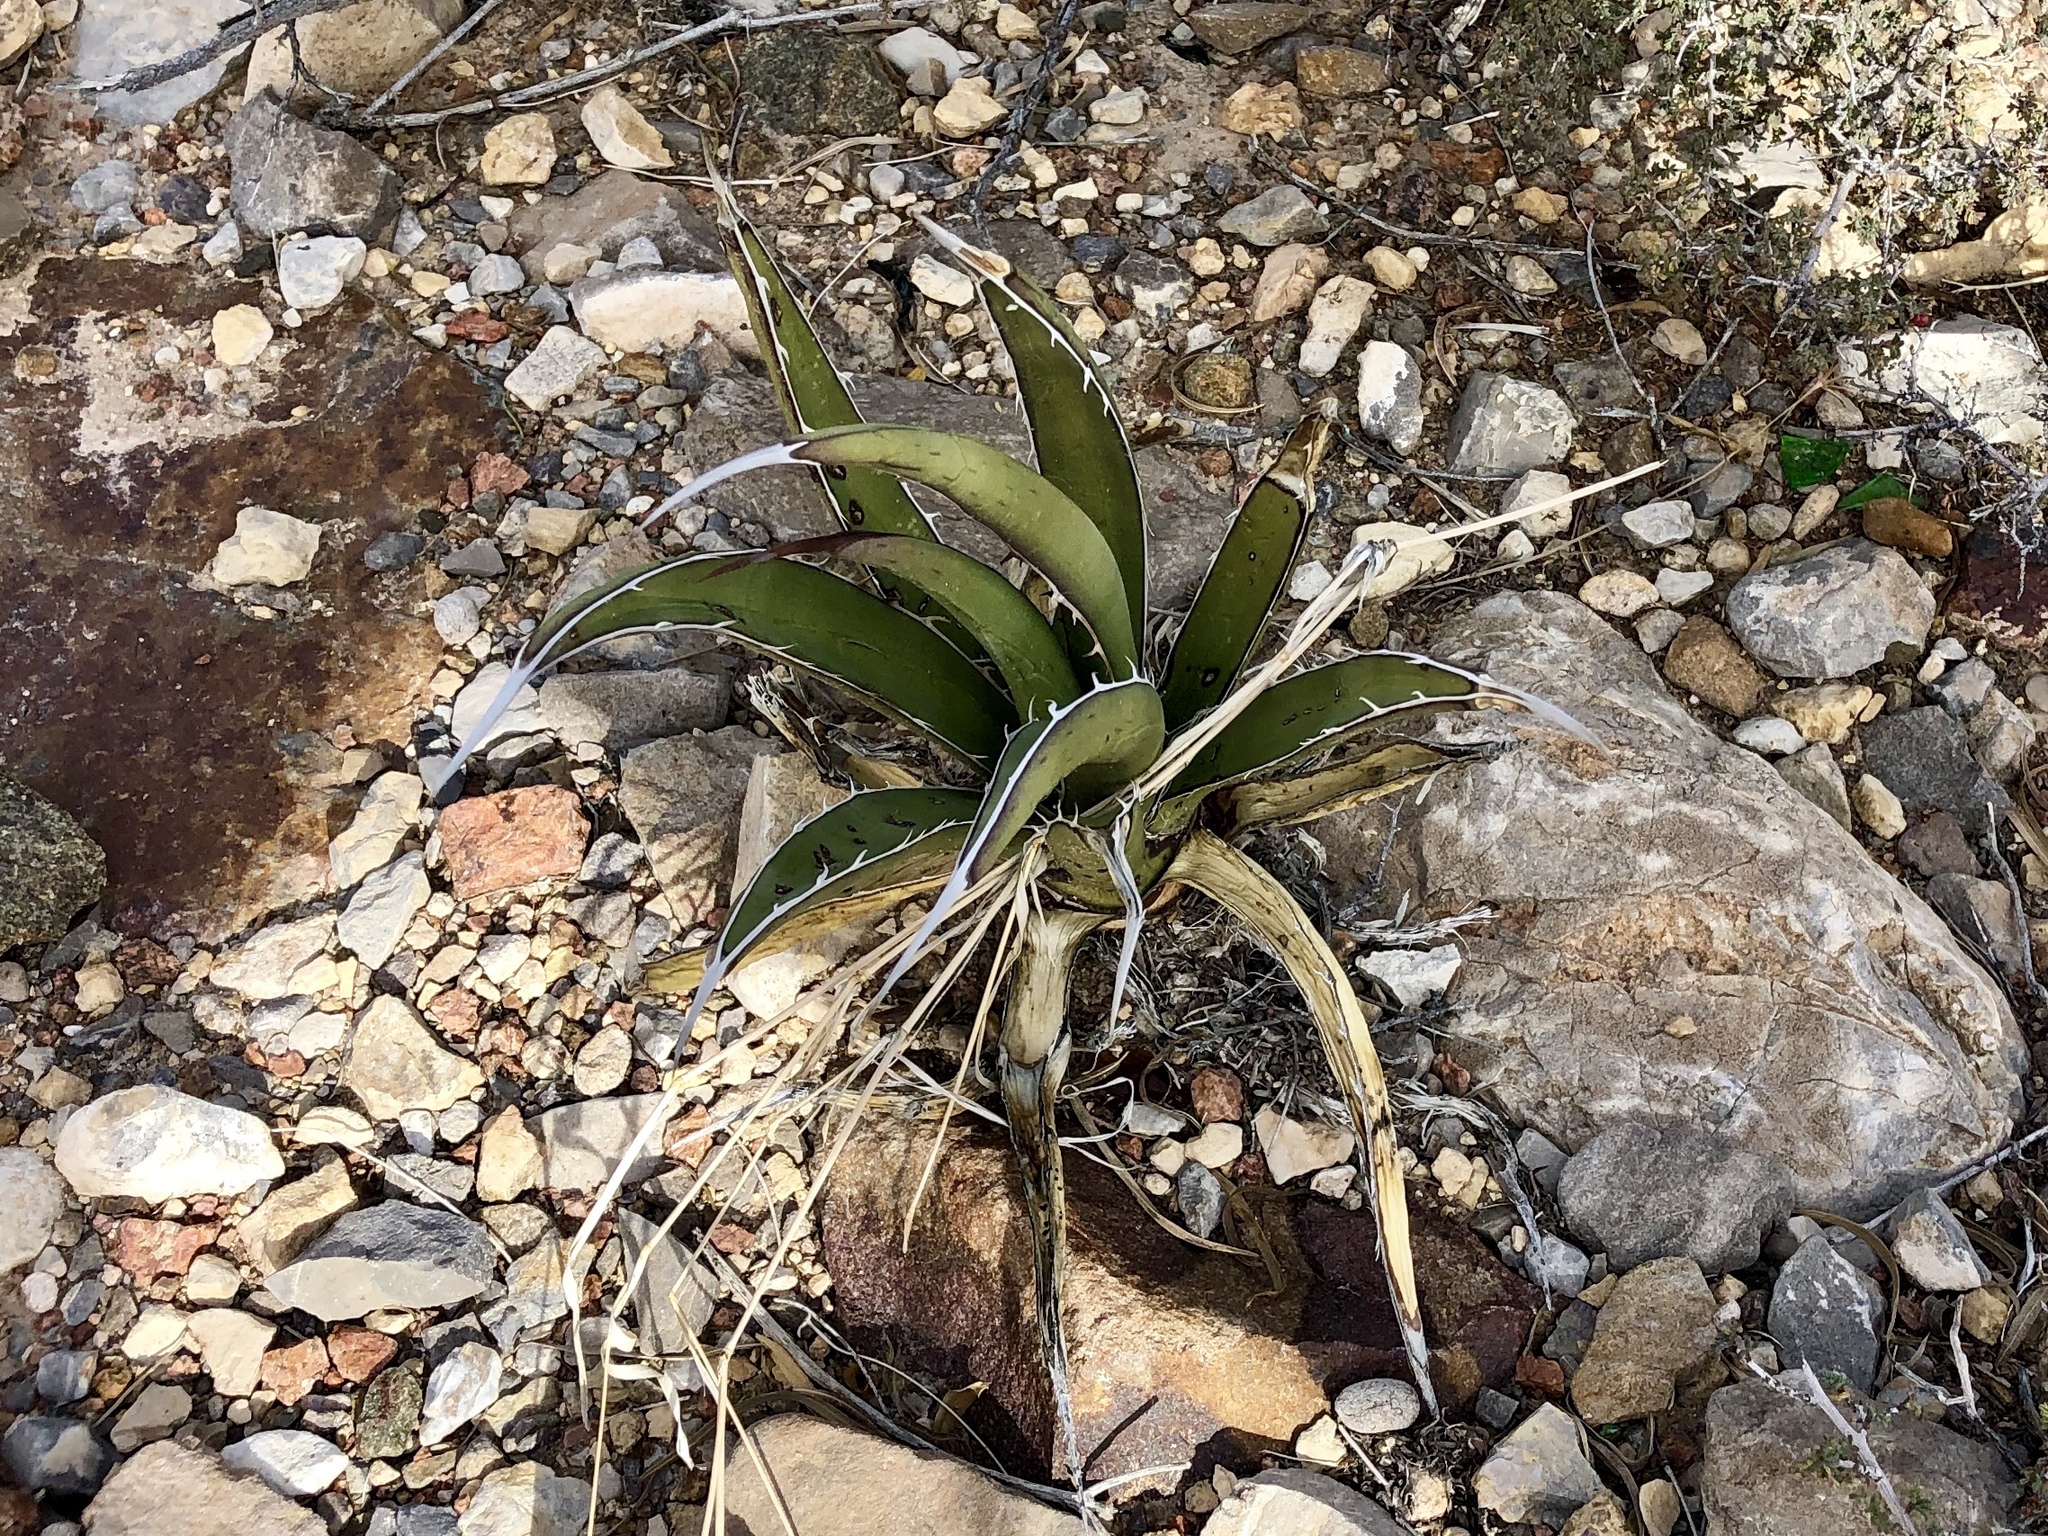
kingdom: Plantae
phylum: Tracheophyta
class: Liliopsida
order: Asparagales
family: Asparagaceae
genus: Agave
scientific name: Agave lechuguilla
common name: Lecheguilla agave
